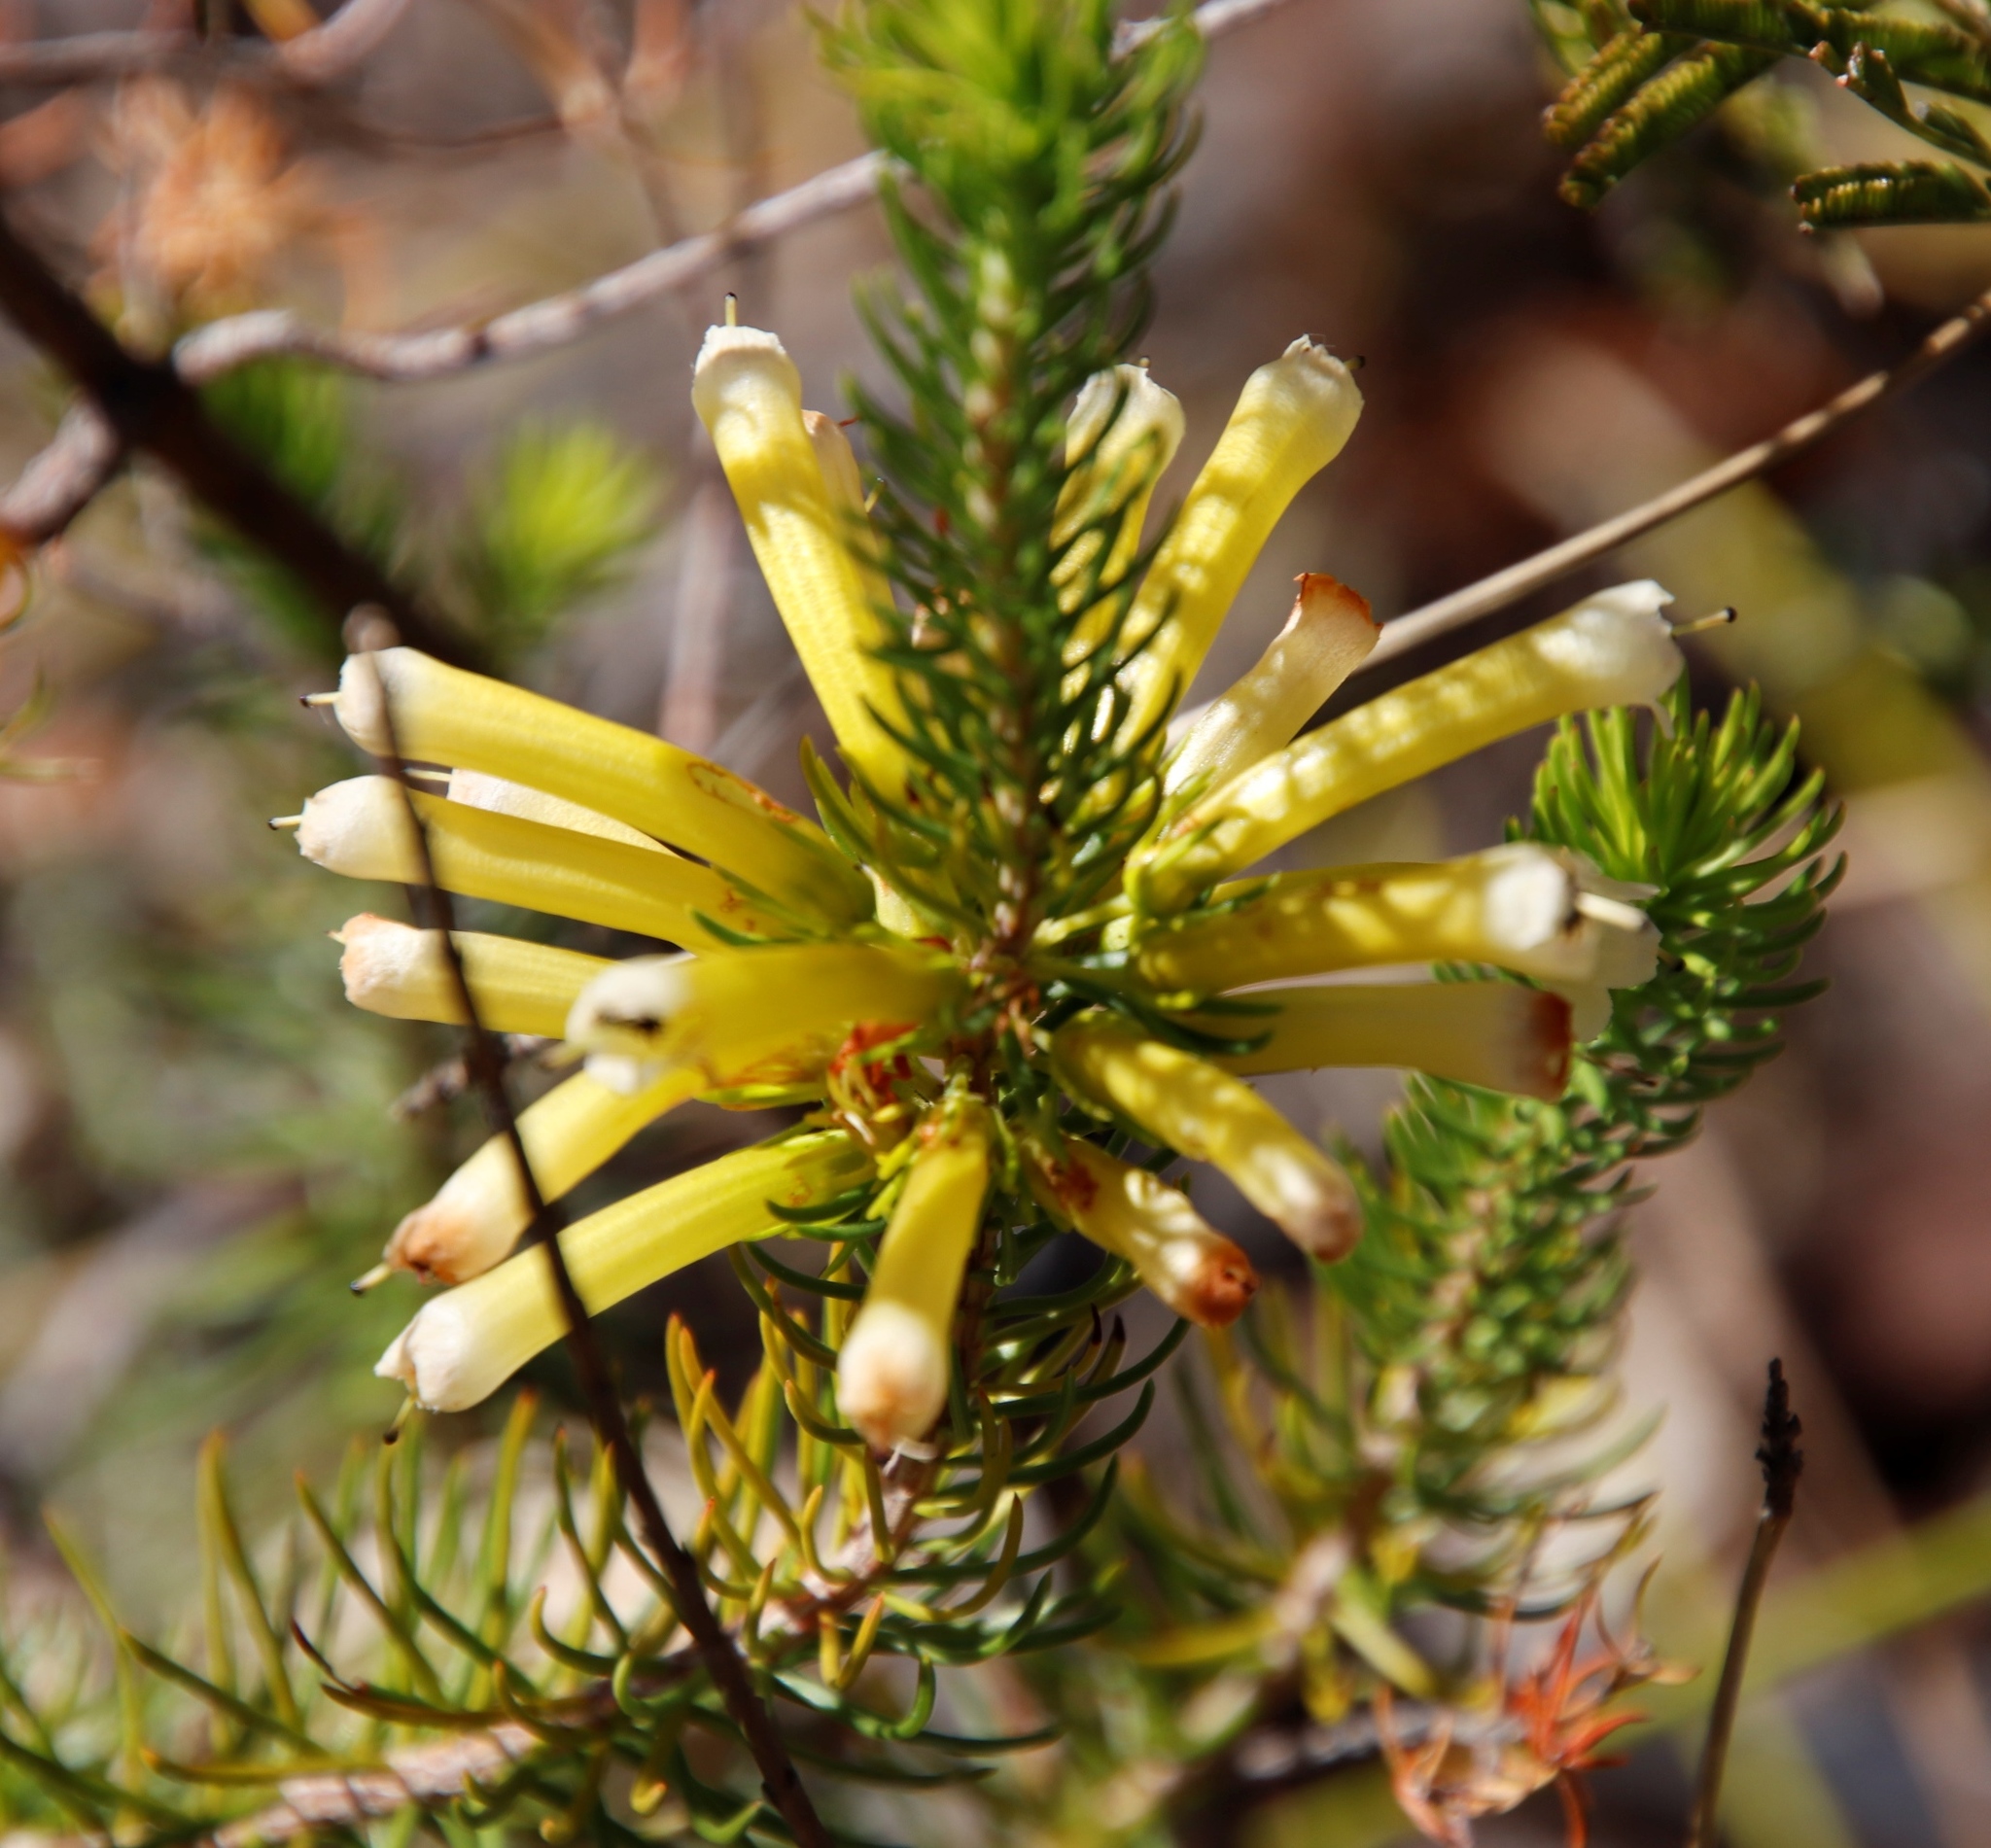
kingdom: Plantae
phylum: Tracheophyta
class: Magnoliopsida
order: Ericales
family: Ericaceae
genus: Erica
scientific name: Erica pinea
